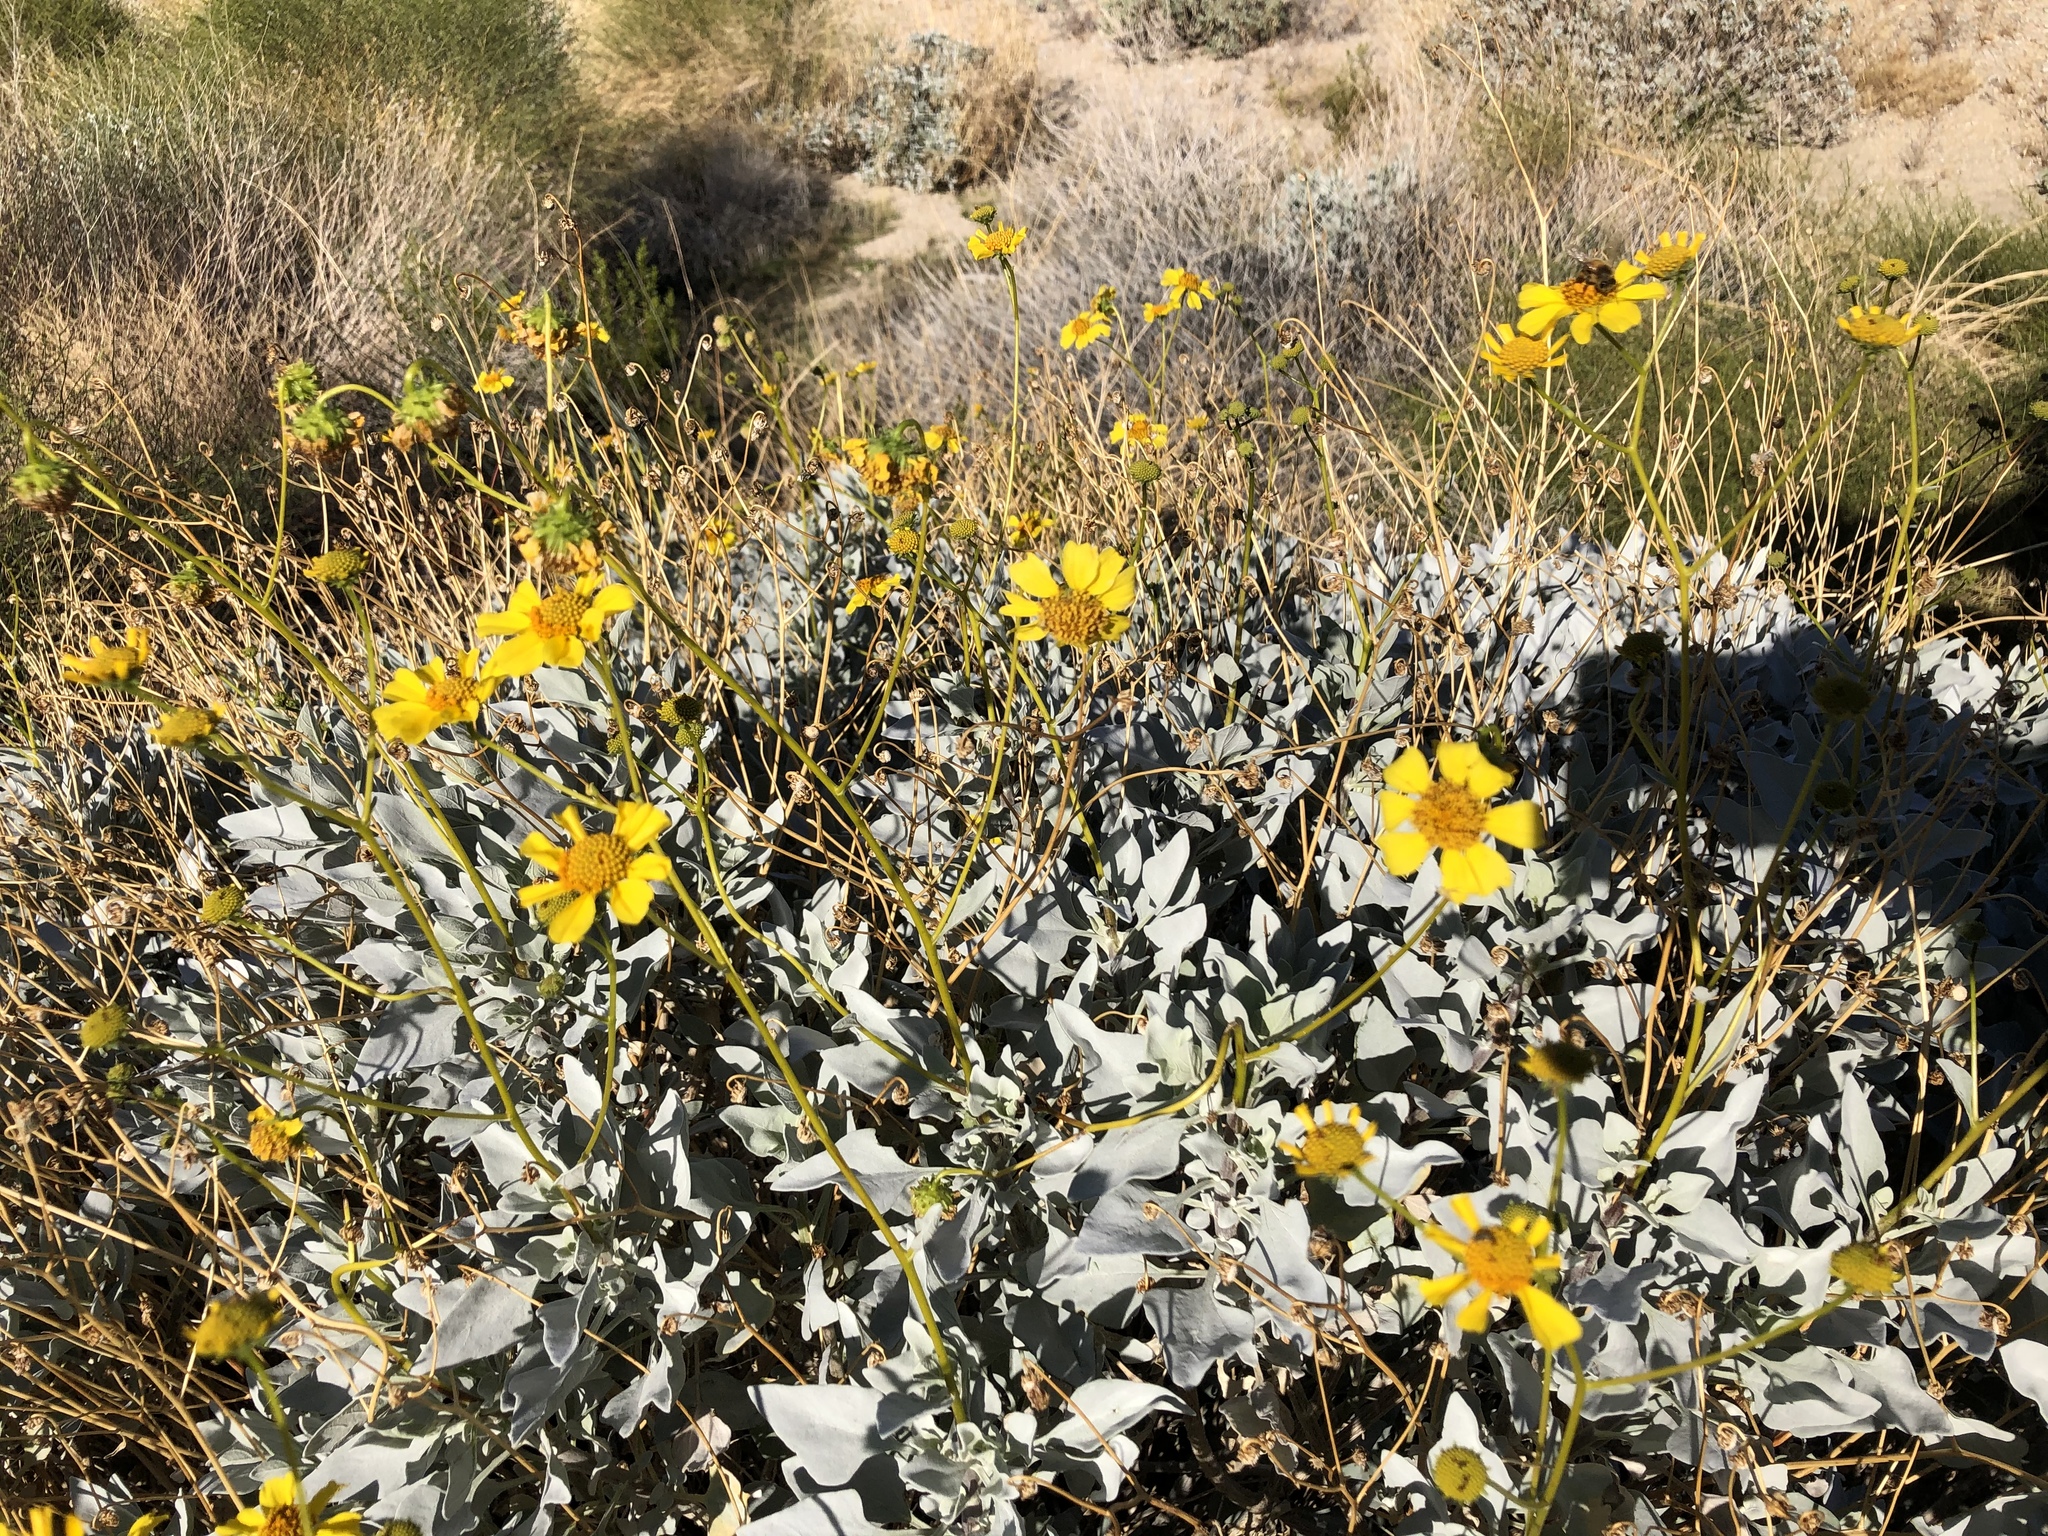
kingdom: Plantae
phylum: Tracheophyta
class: Magnoliopsida
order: Asterales
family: Asteraceae
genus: Encelia
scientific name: Encelia farinosa
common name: Brittlebush
